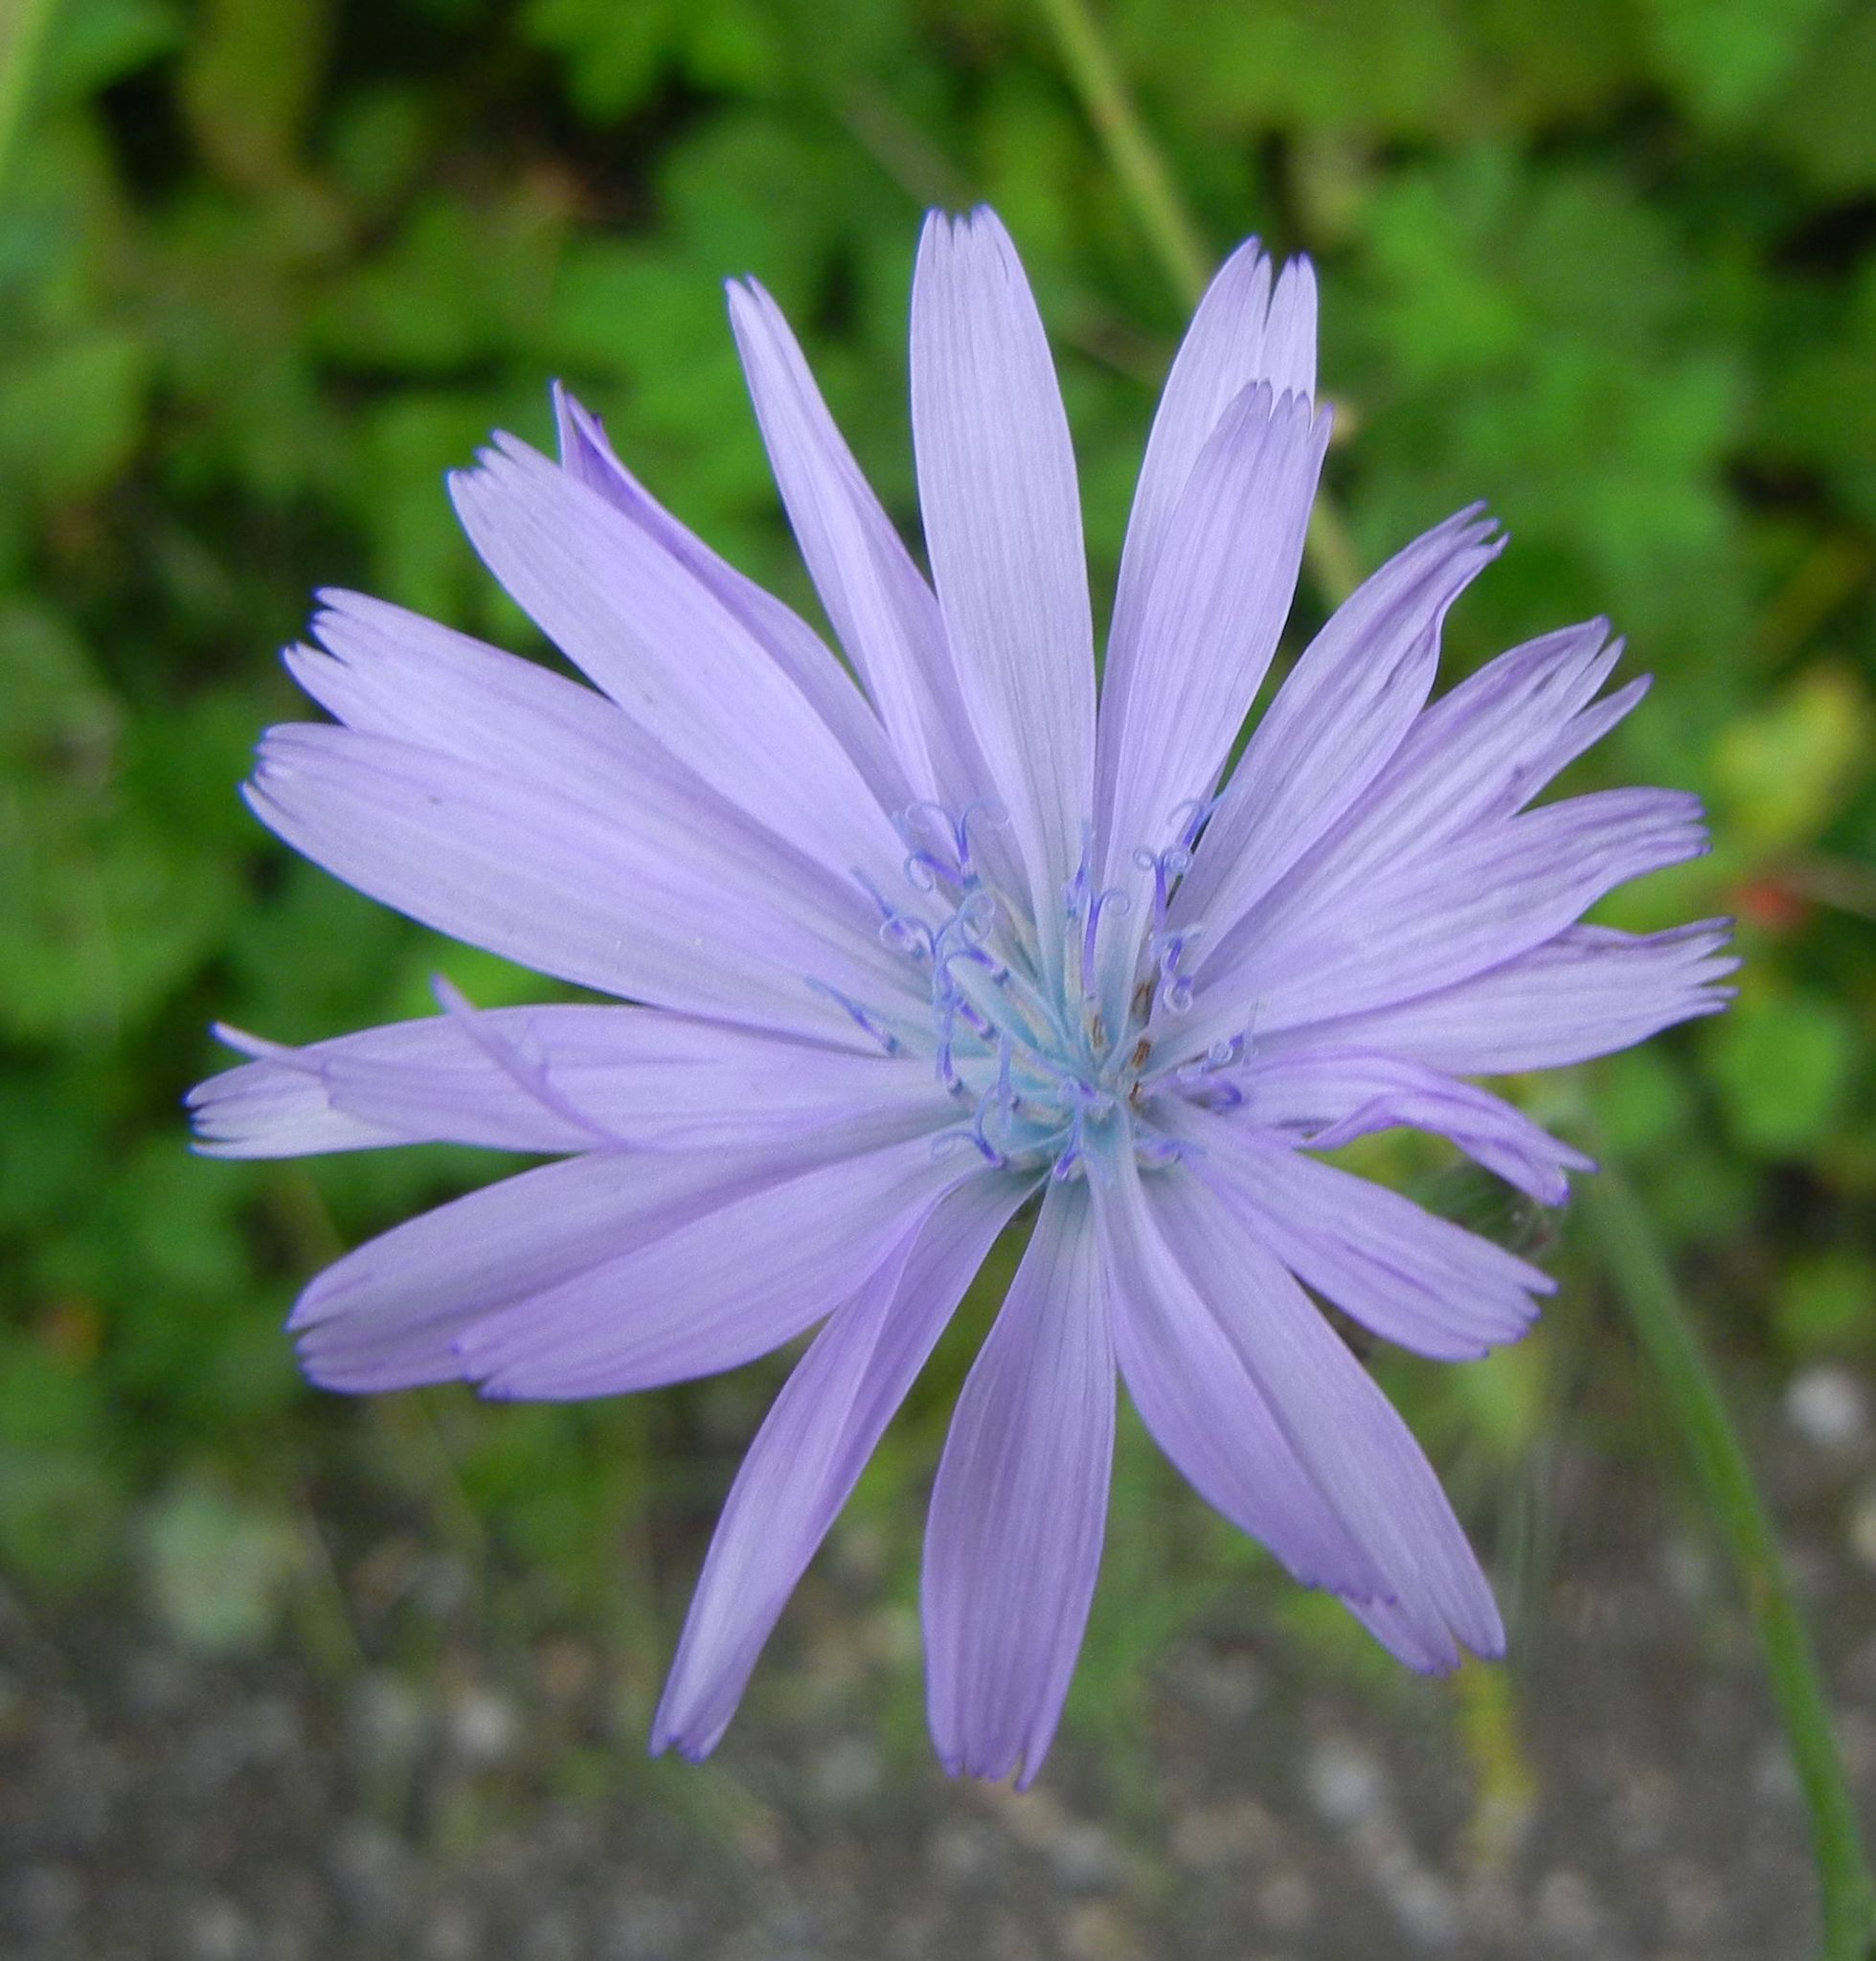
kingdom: Plantae
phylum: Tracheophyta
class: Magnoliopsida
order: Asterales
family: Asteraceae
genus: Lactuca
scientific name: Lactuca macrophylla
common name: Common blue-sow-thistle
